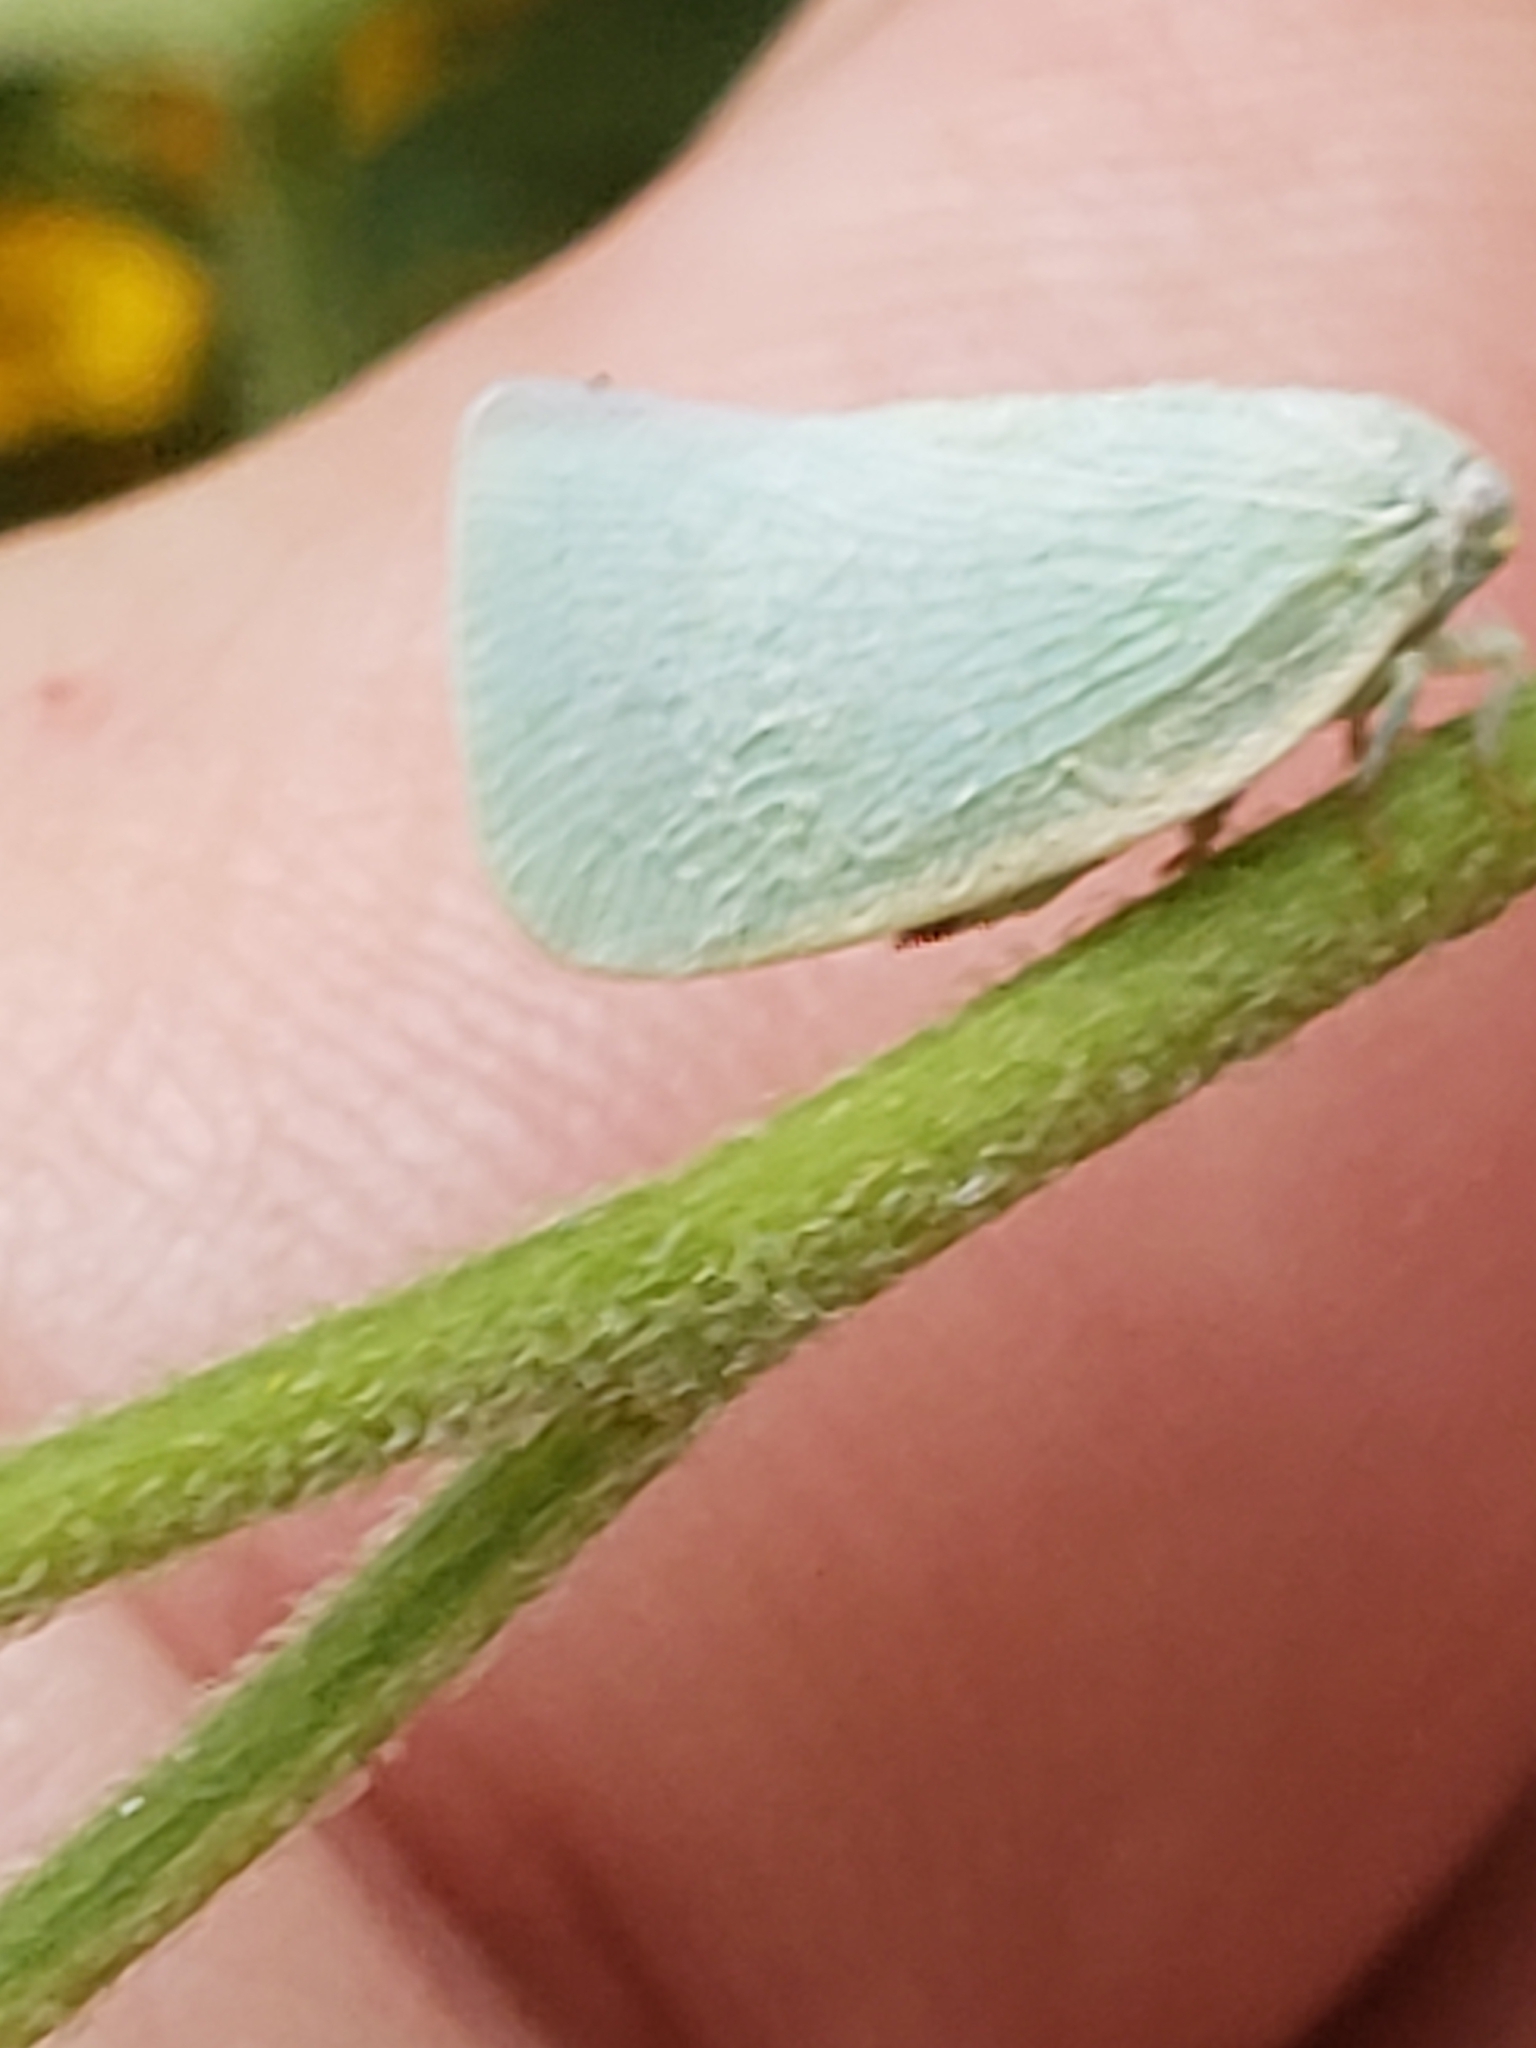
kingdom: Animalia
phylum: Arthropoda
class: Insecta
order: Hemiptera
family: Flatidae
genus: Flatormenis
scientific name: Flatormenis proxima
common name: Northern flatid planthopper
